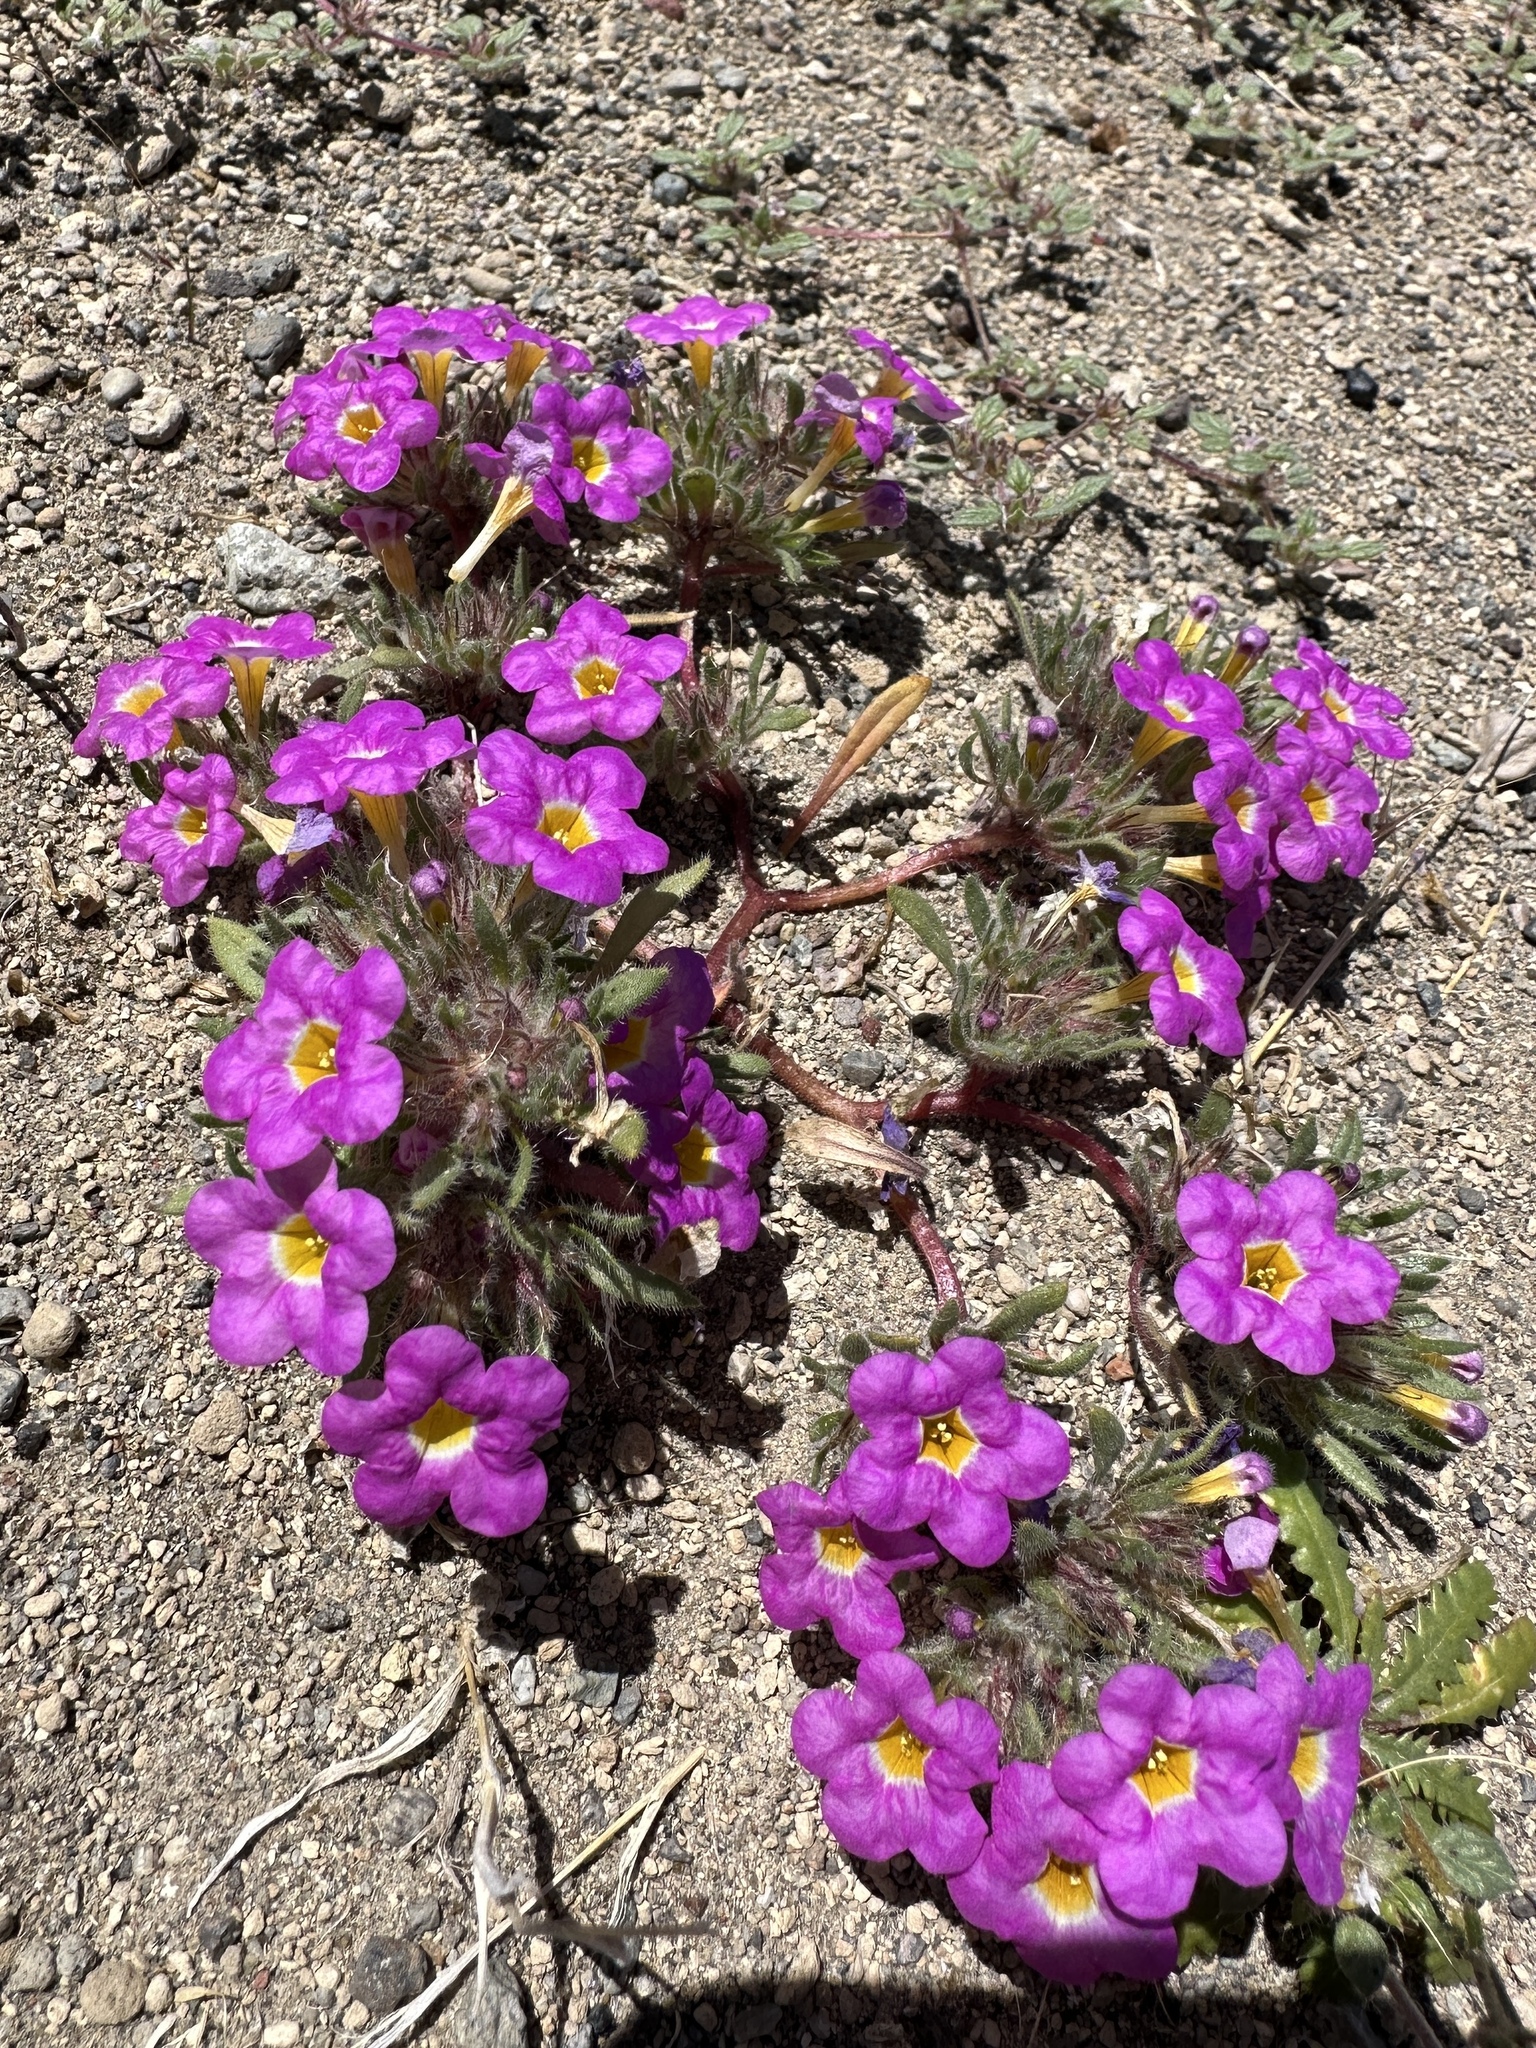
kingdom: Plantae
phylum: Tracheophyta
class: Magnoliopsida
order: Boraginales
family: Namaceae
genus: Nama
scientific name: Nama aretioides
